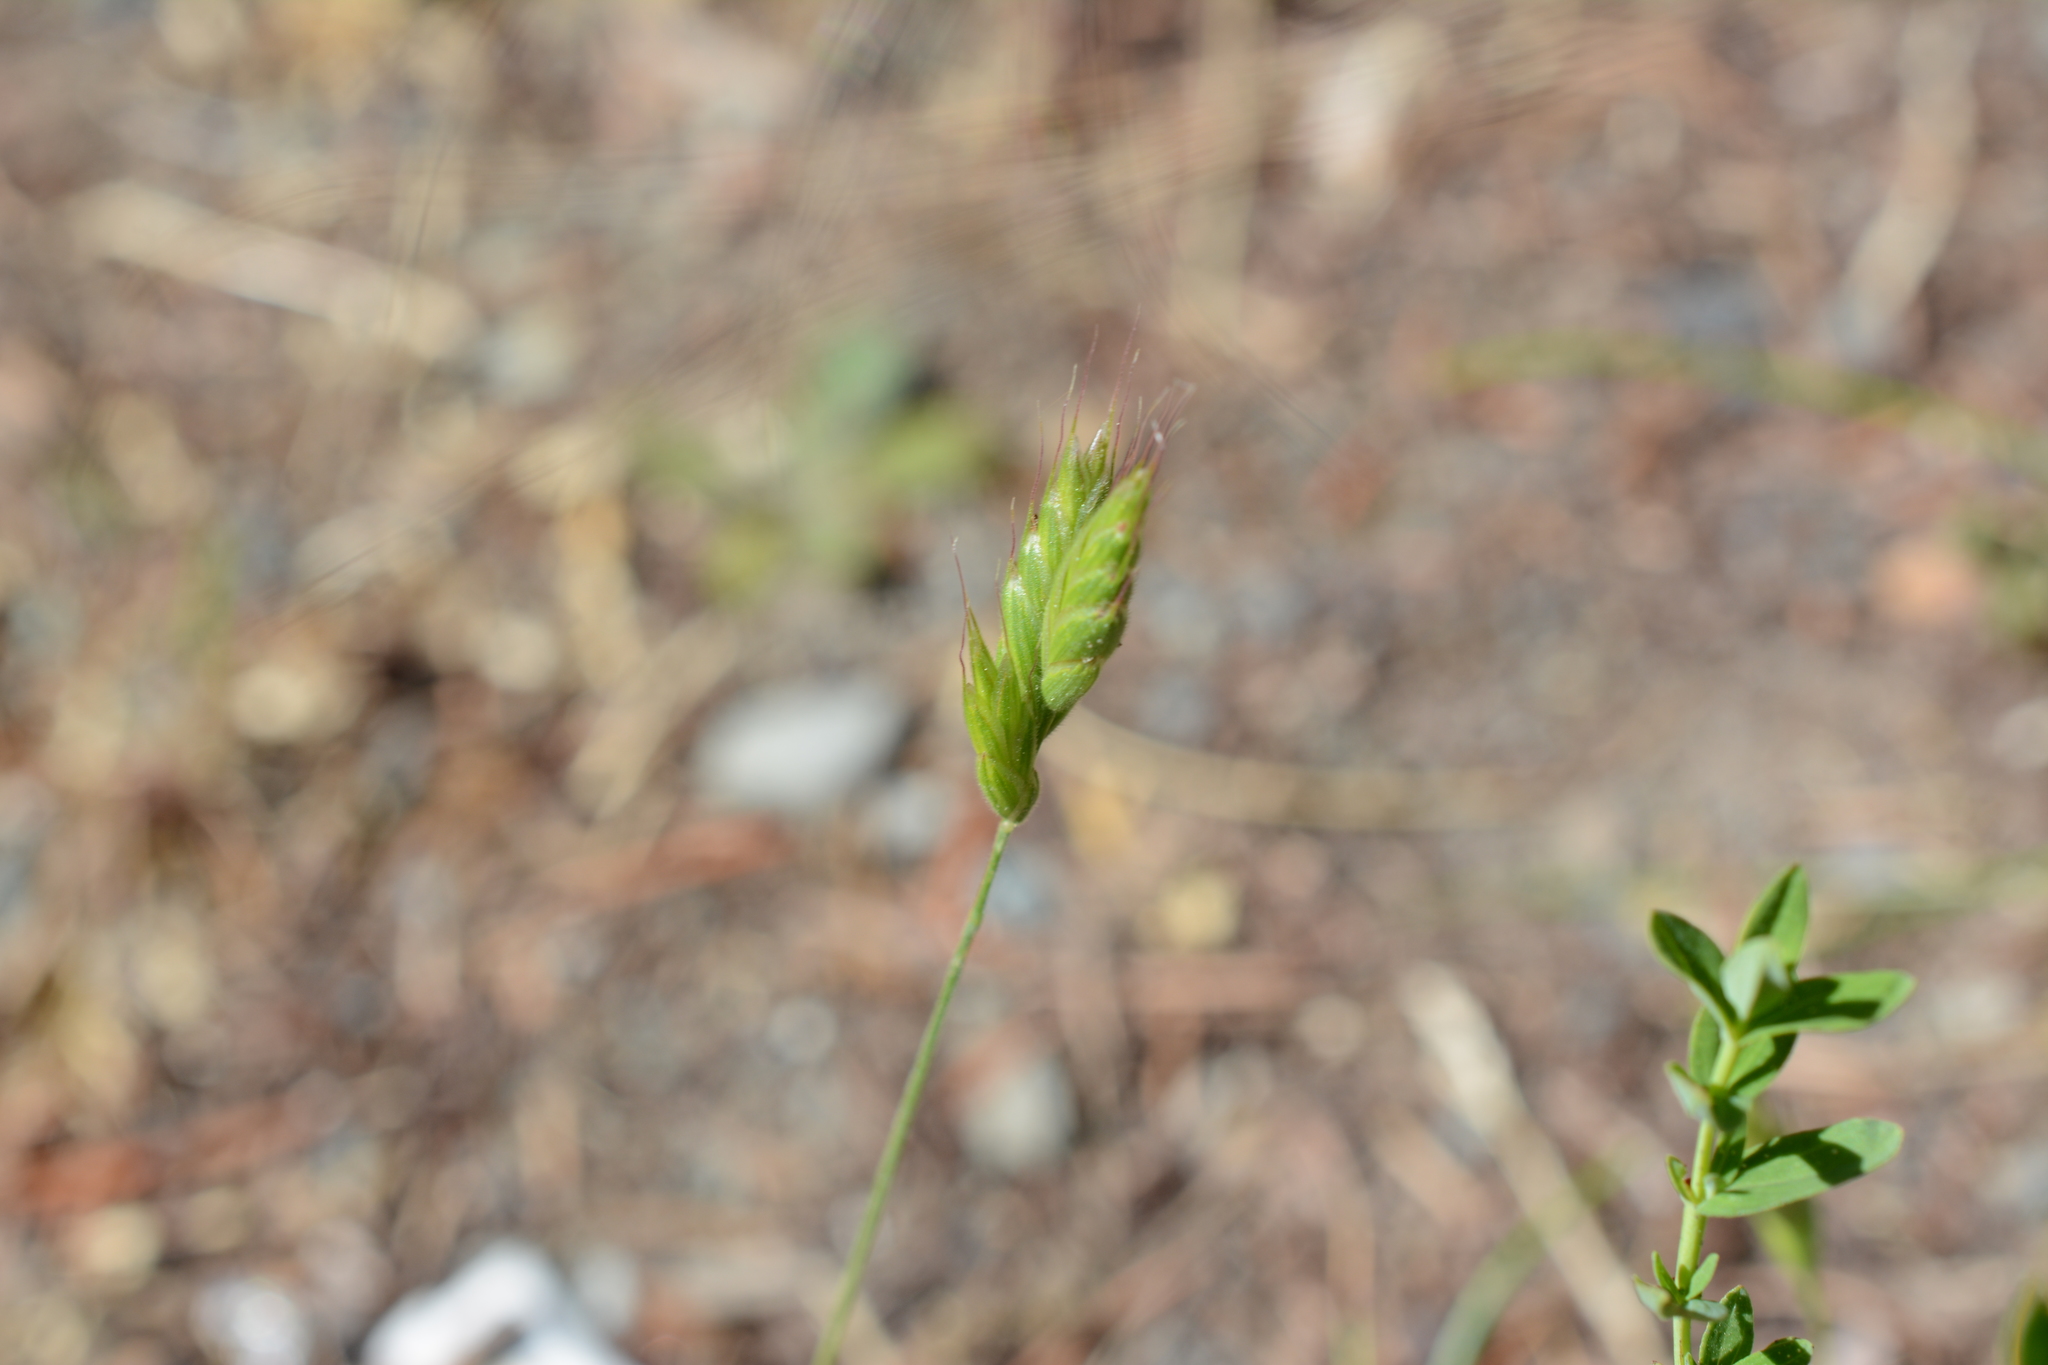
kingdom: Plantae
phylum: Tracheophyta
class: Liliopsida
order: Poales
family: Poaceae
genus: Bromus
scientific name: Bromus hordeaceus
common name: Soft brome
